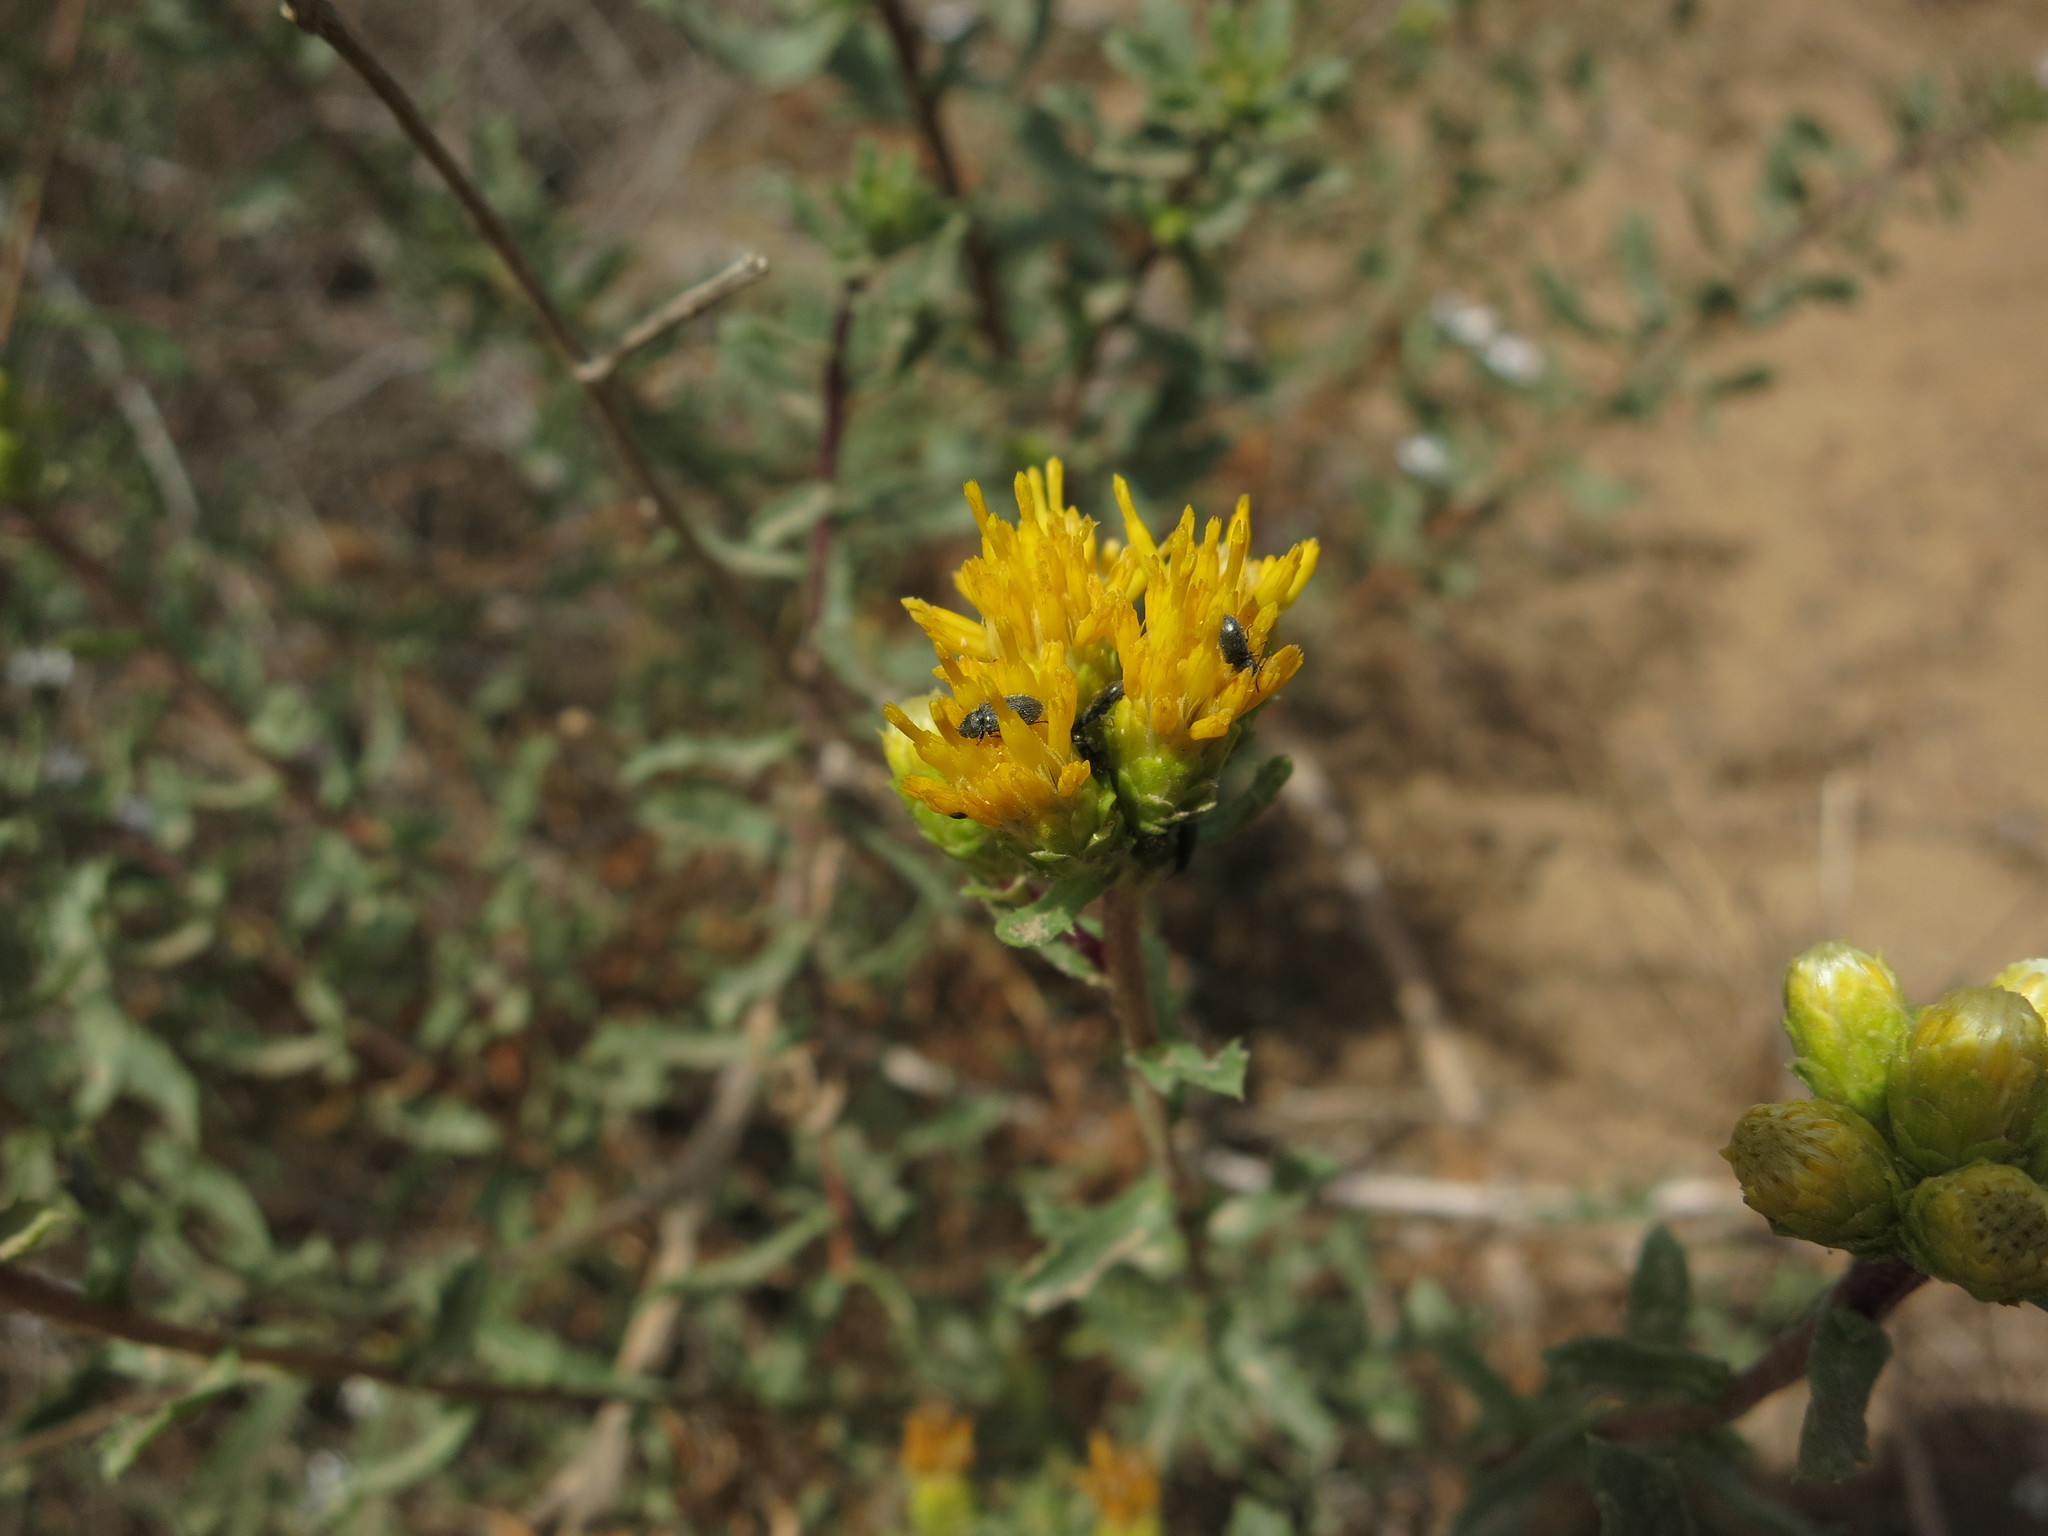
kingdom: Plantae
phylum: Tracheophyta
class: Magnoliopsida
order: Asterales
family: Asteraceae
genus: Isocoma
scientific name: Isocoma menziesii
